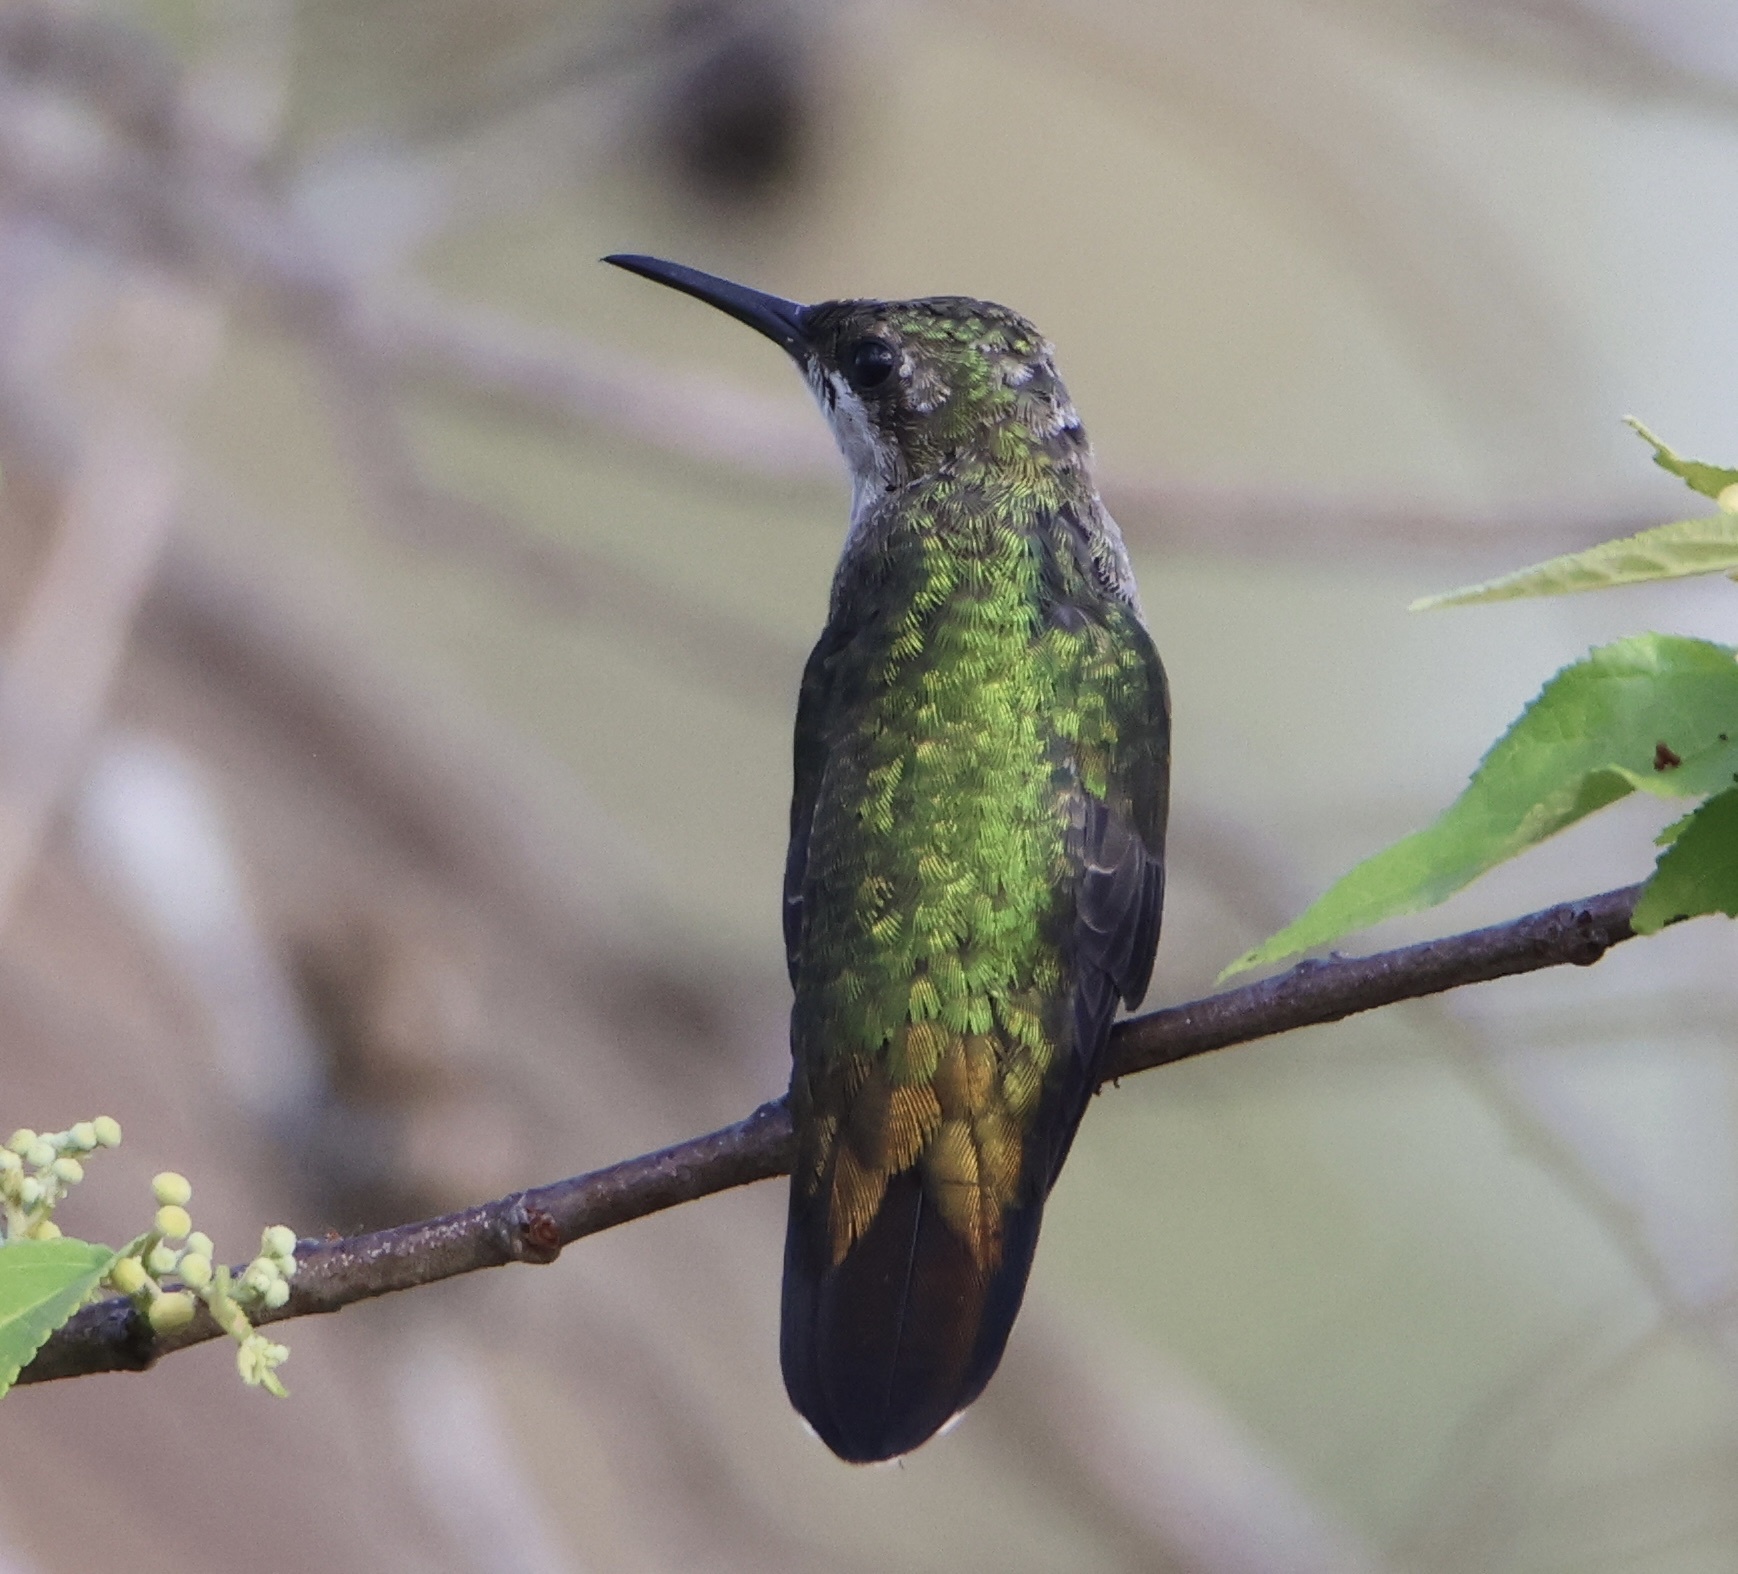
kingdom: Animalia
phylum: Chordata
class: Aves
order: Apodiformes
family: Trochilidae
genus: Anthracothorax
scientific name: Anthracothorax dominicus
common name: Antillean mango
